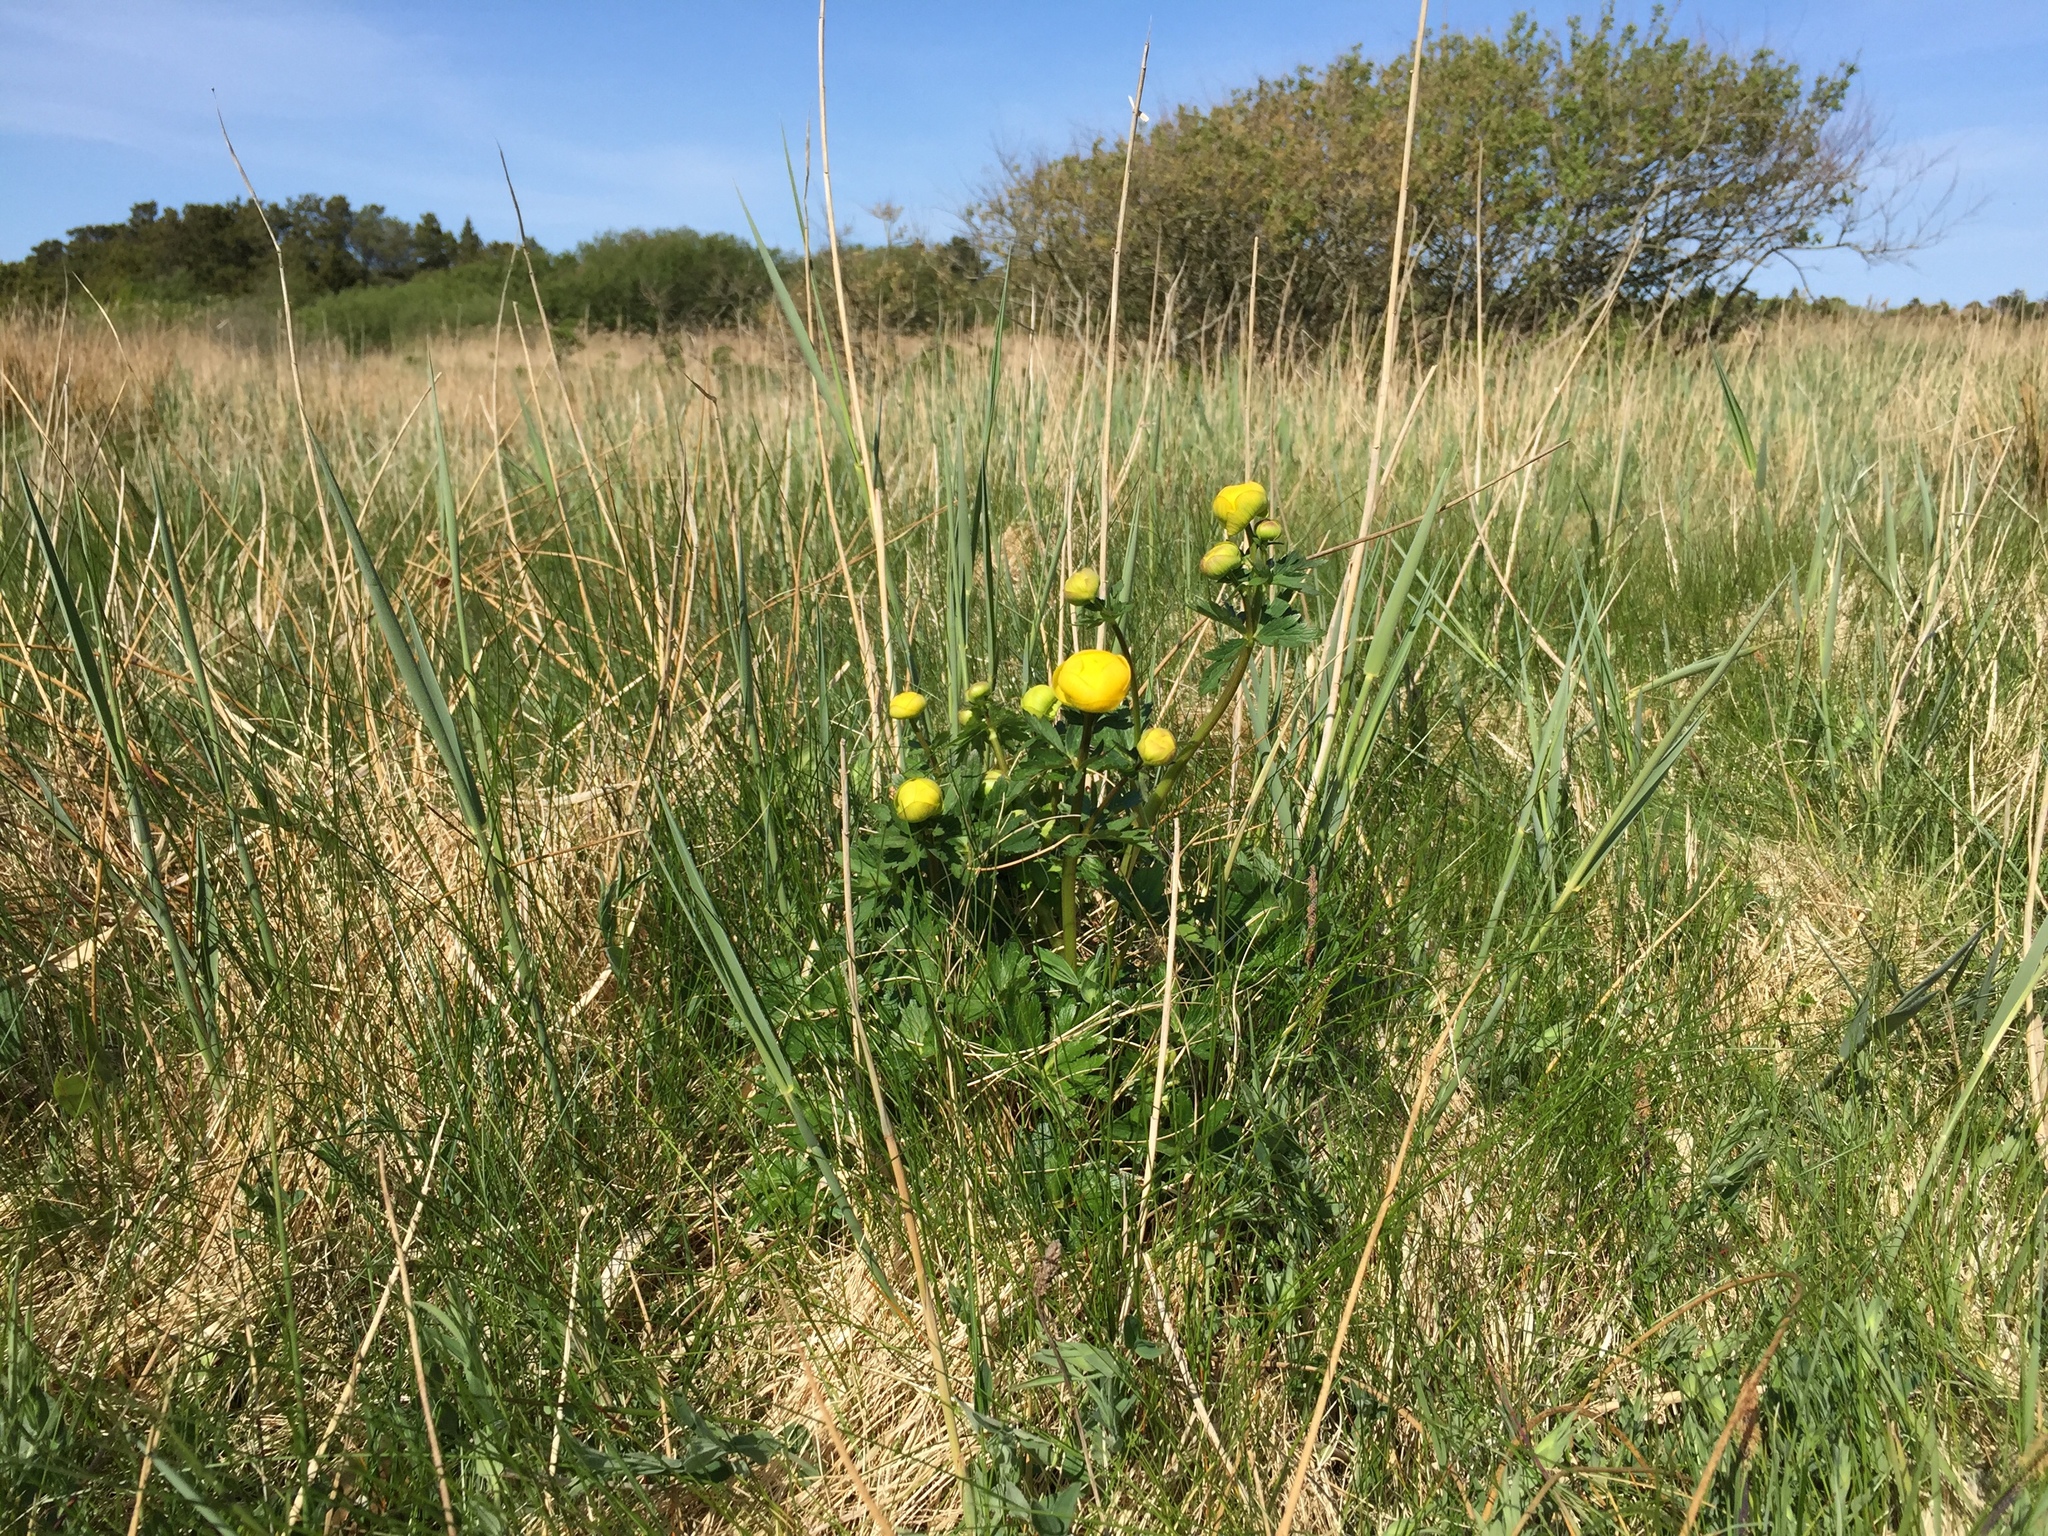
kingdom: Plantae
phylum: Tracheophyta
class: Magnoliopsida
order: Ranunculales
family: Ranunculaceae
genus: Trollius
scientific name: Trollius europaeus
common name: European globeflower
